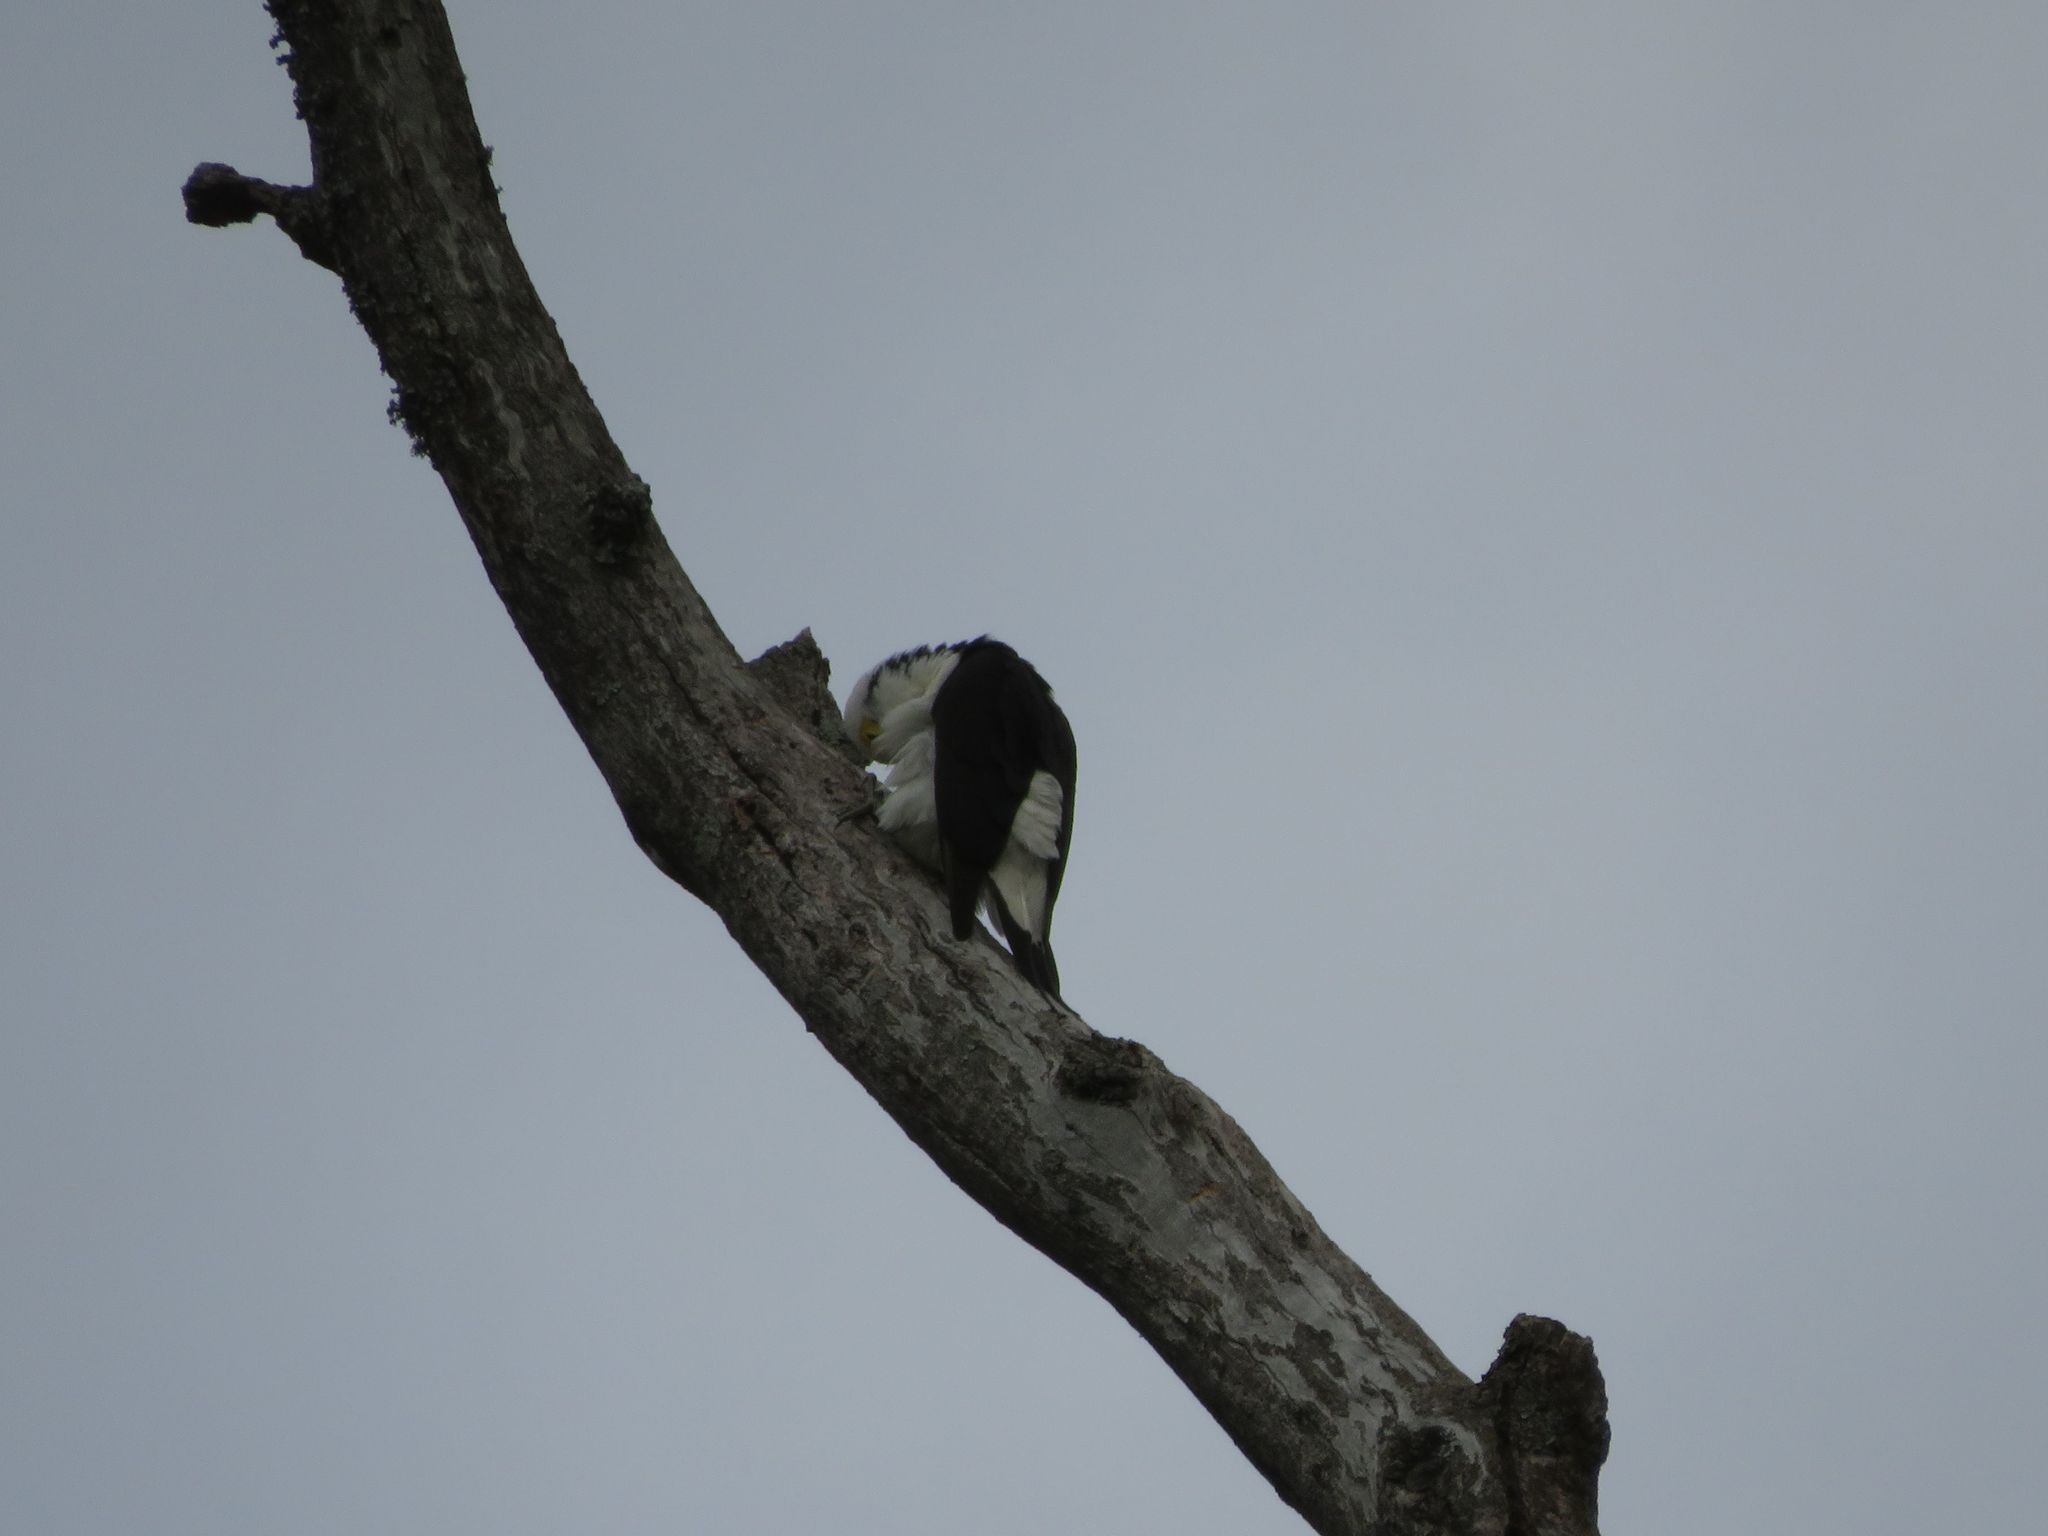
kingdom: Animalia
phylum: Chordata
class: Aves
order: Piciformes
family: Picidae
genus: Melanerpes
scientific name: Melanerpes candidus
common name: White woodpecker
